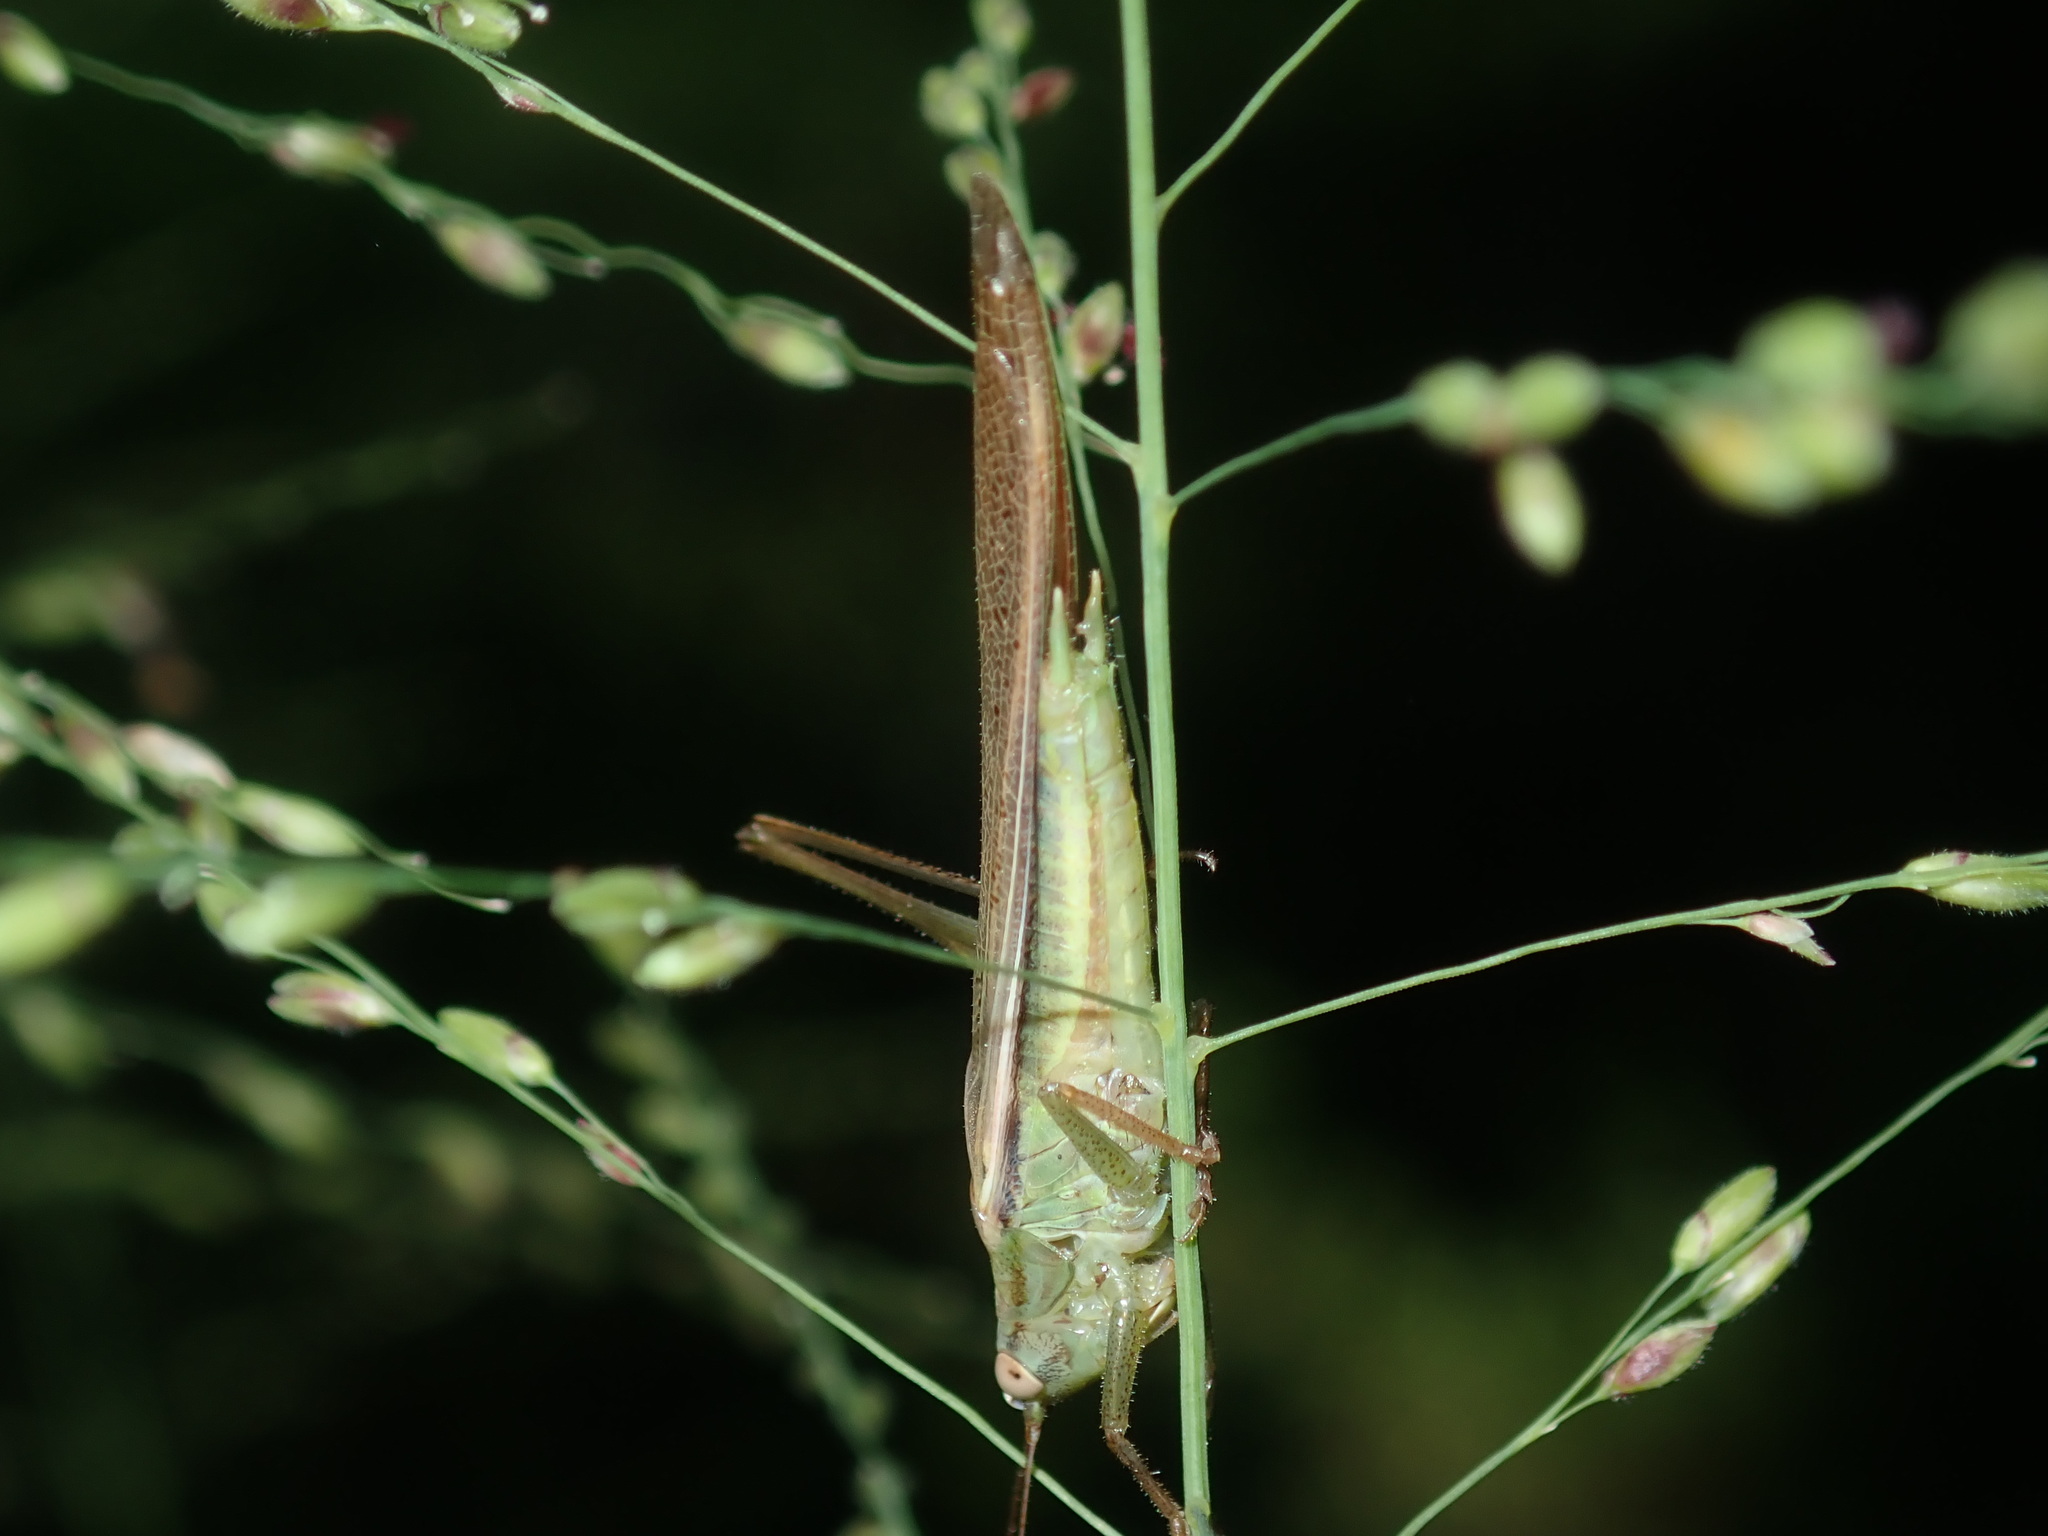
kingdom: Animalia
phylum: Arthropoda
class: Insecta
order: Orthoptera
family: Tettigoniidae
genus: Conocephalus
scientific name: Conocephalus upoluensis
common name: Upolu meadow katydid
